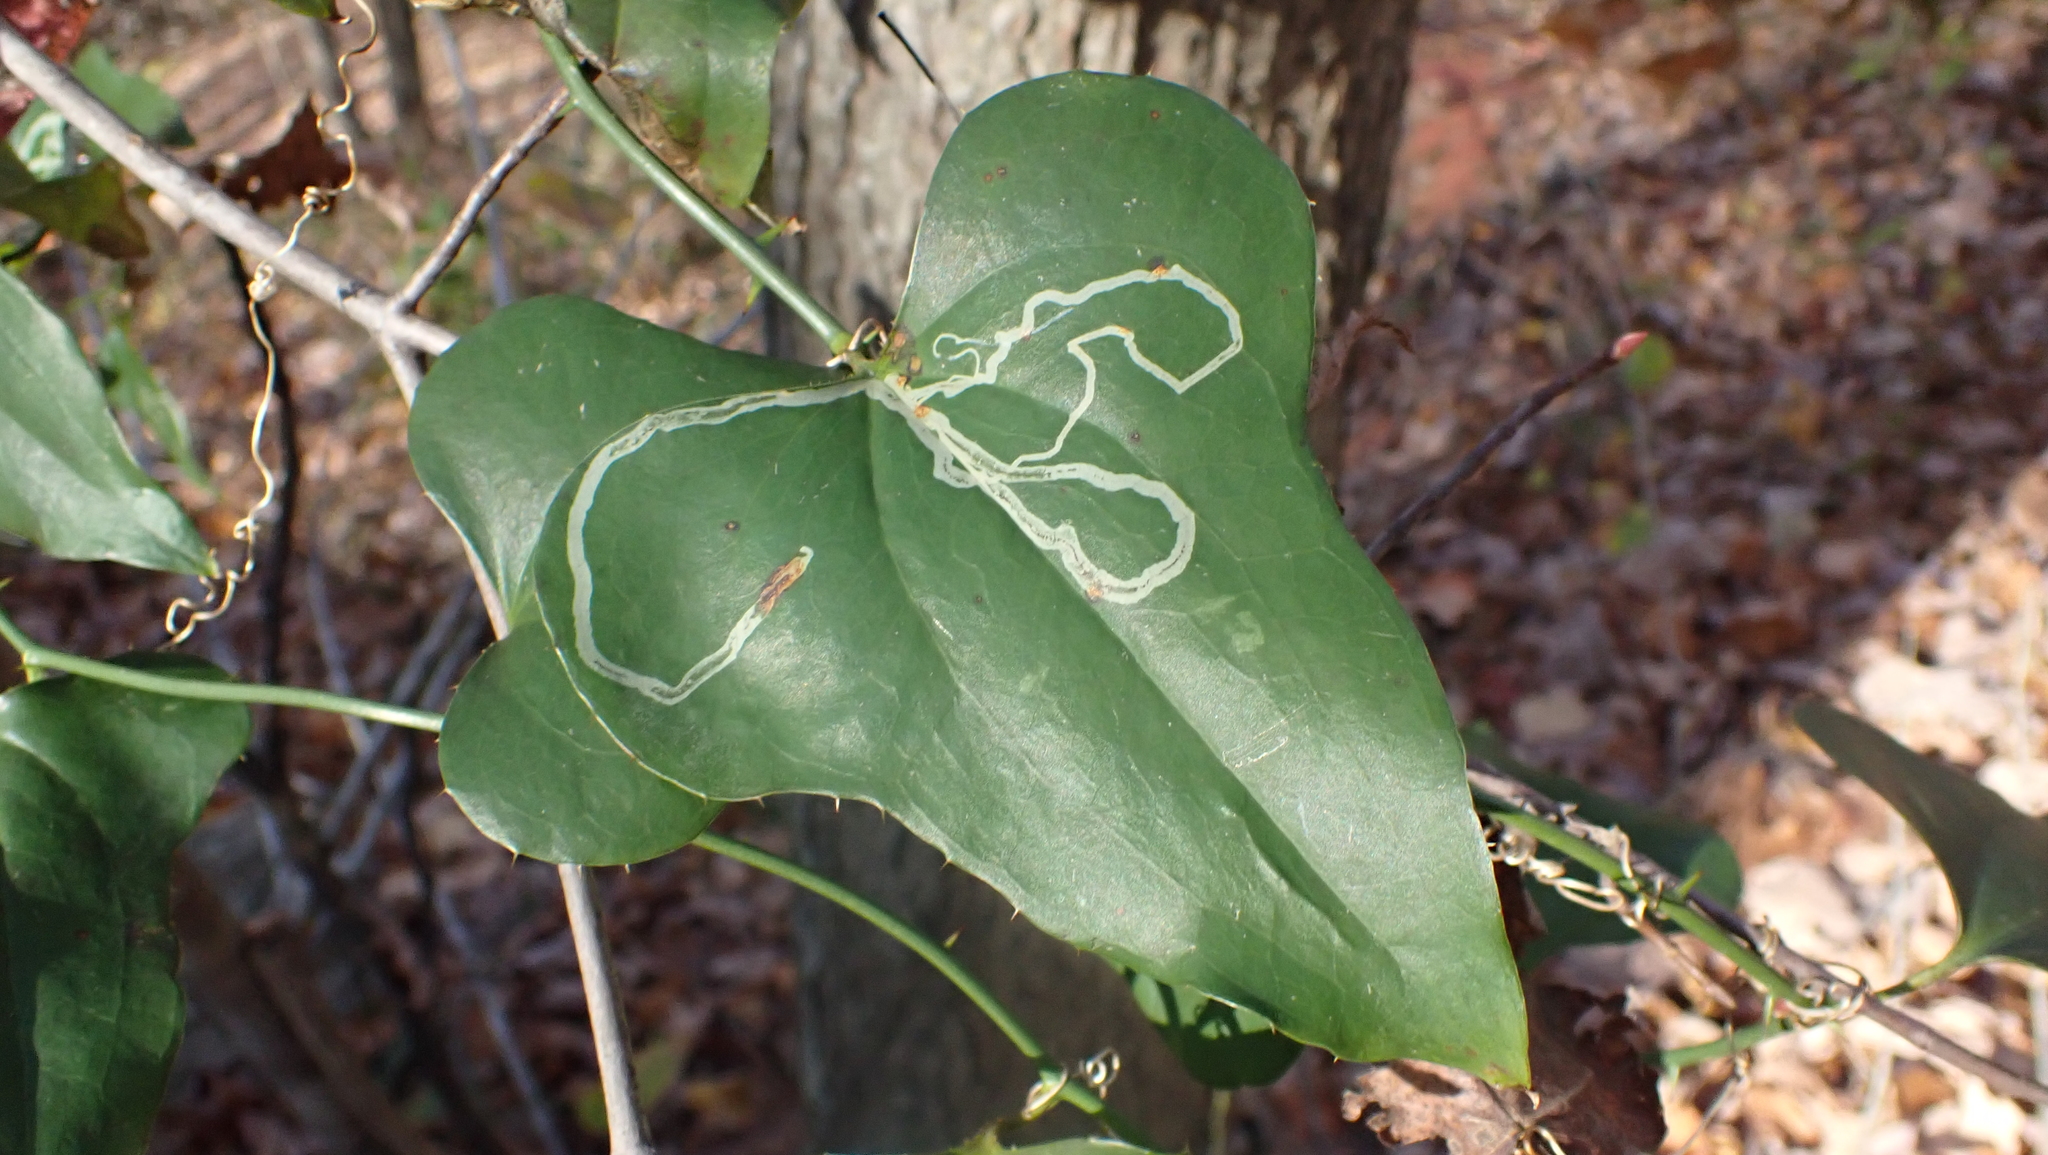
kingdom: Animalia
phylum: Arthropoda
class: Insecta
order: Lepidoptera
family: Gracillariidae
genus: Marmara
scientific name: Marmara smilacisella
